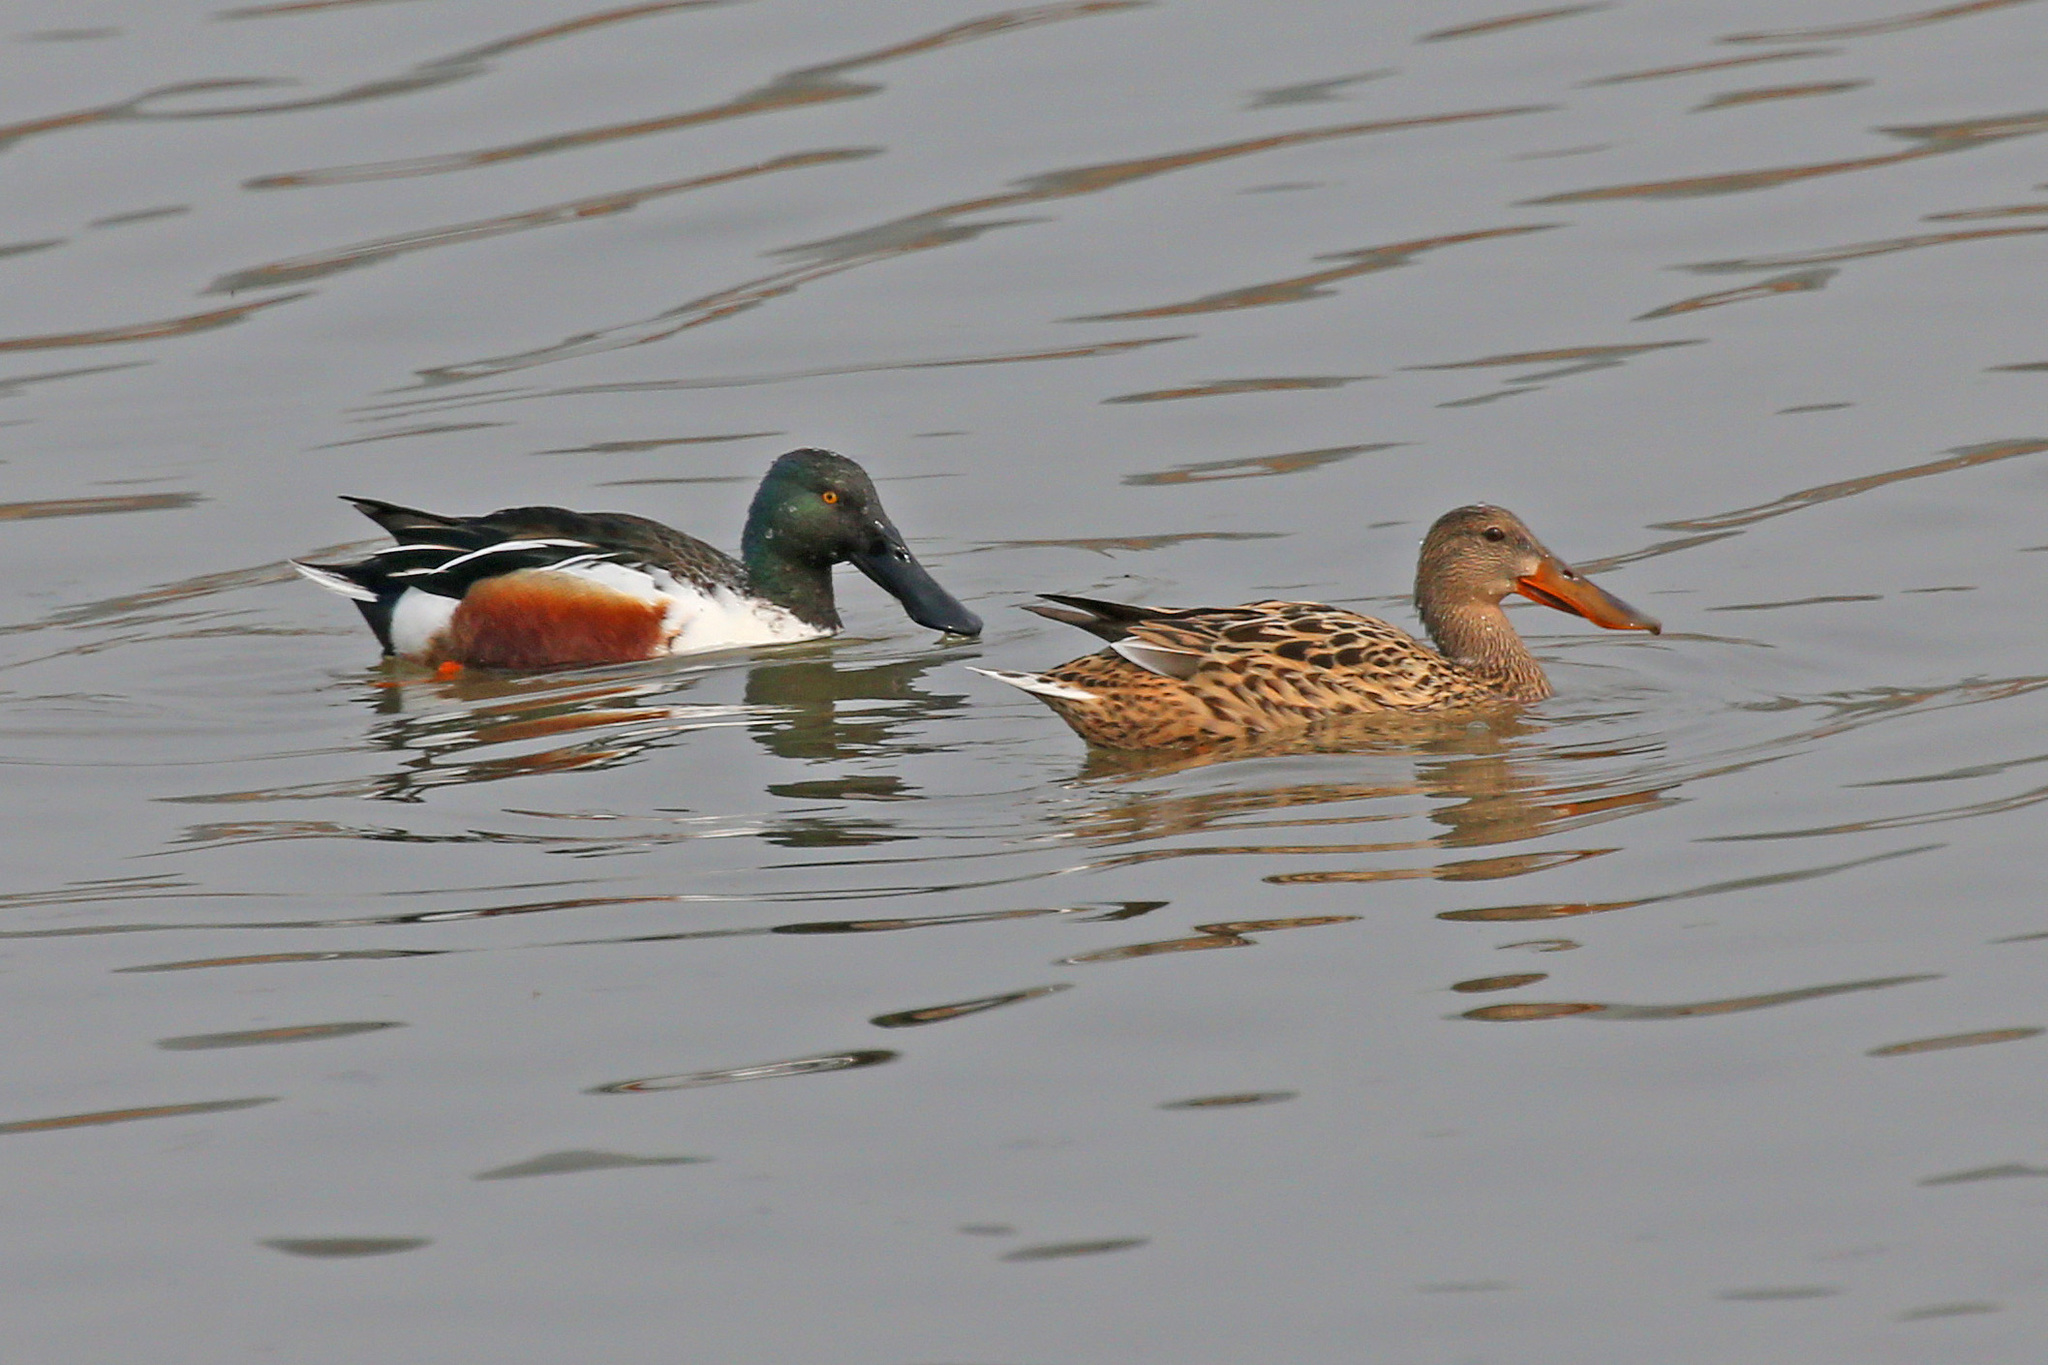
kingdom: Animalia
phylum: Chordata
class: Aves
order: Anseriformes
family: Anatidae
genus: Spatula
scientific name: Spatula clypeata
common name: Northern shoveler
